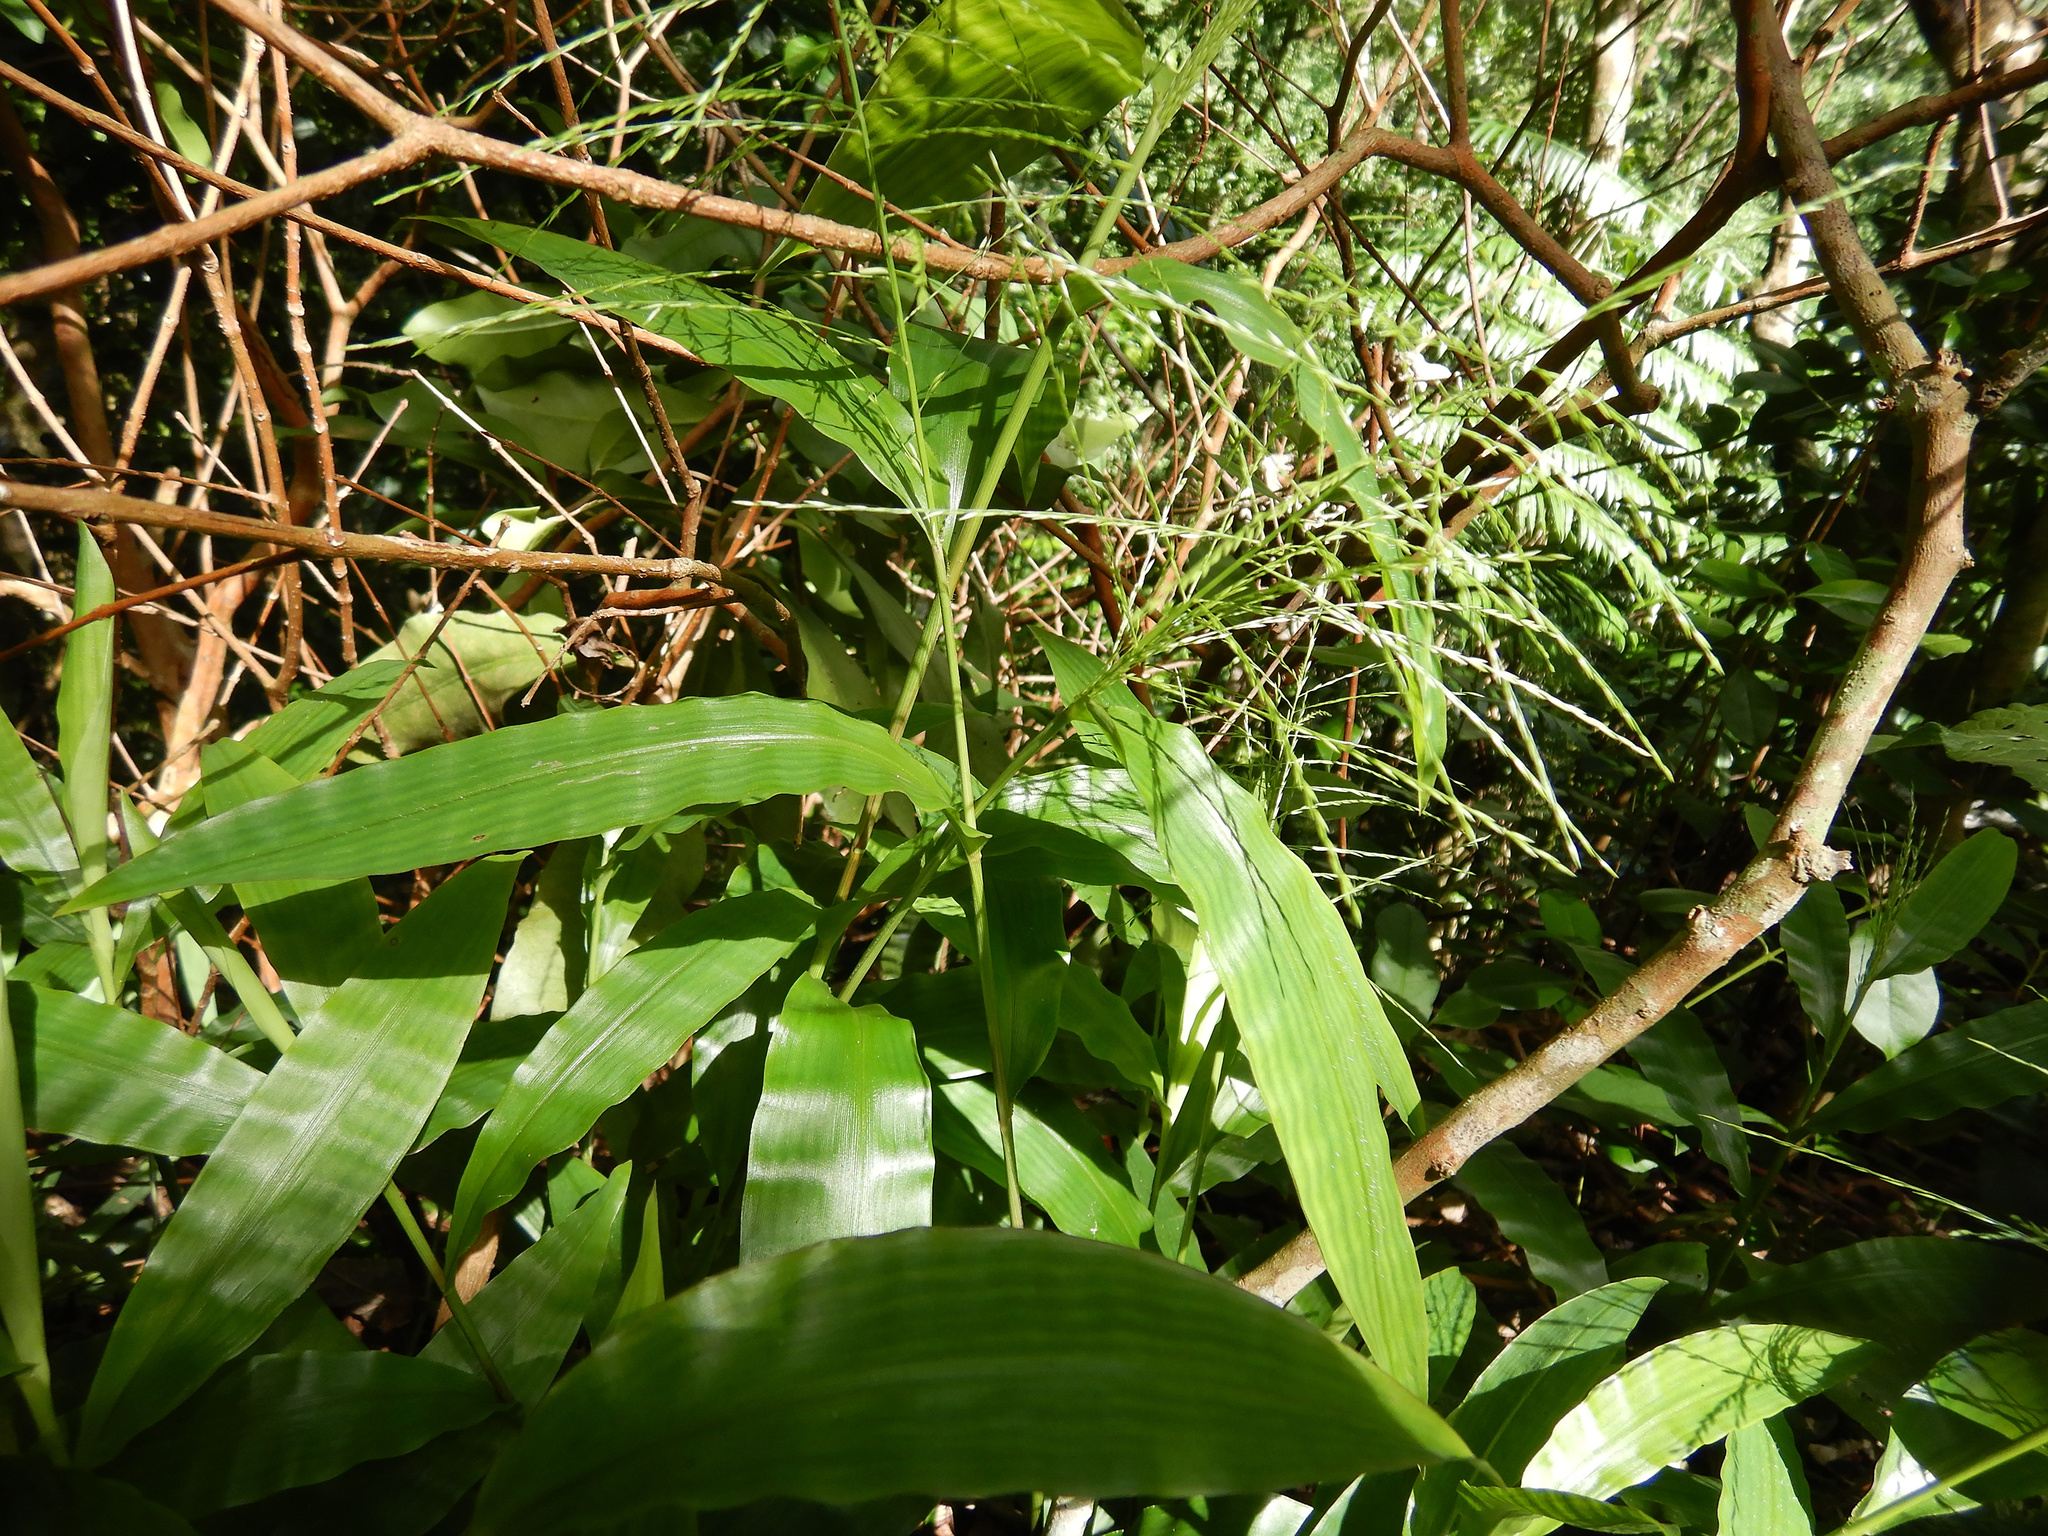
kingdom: Plantae
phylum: Tracheophyta
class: Liliopsida
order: Poales
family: Poaceae
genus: Centotheca
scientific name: Centotheca lappacea
